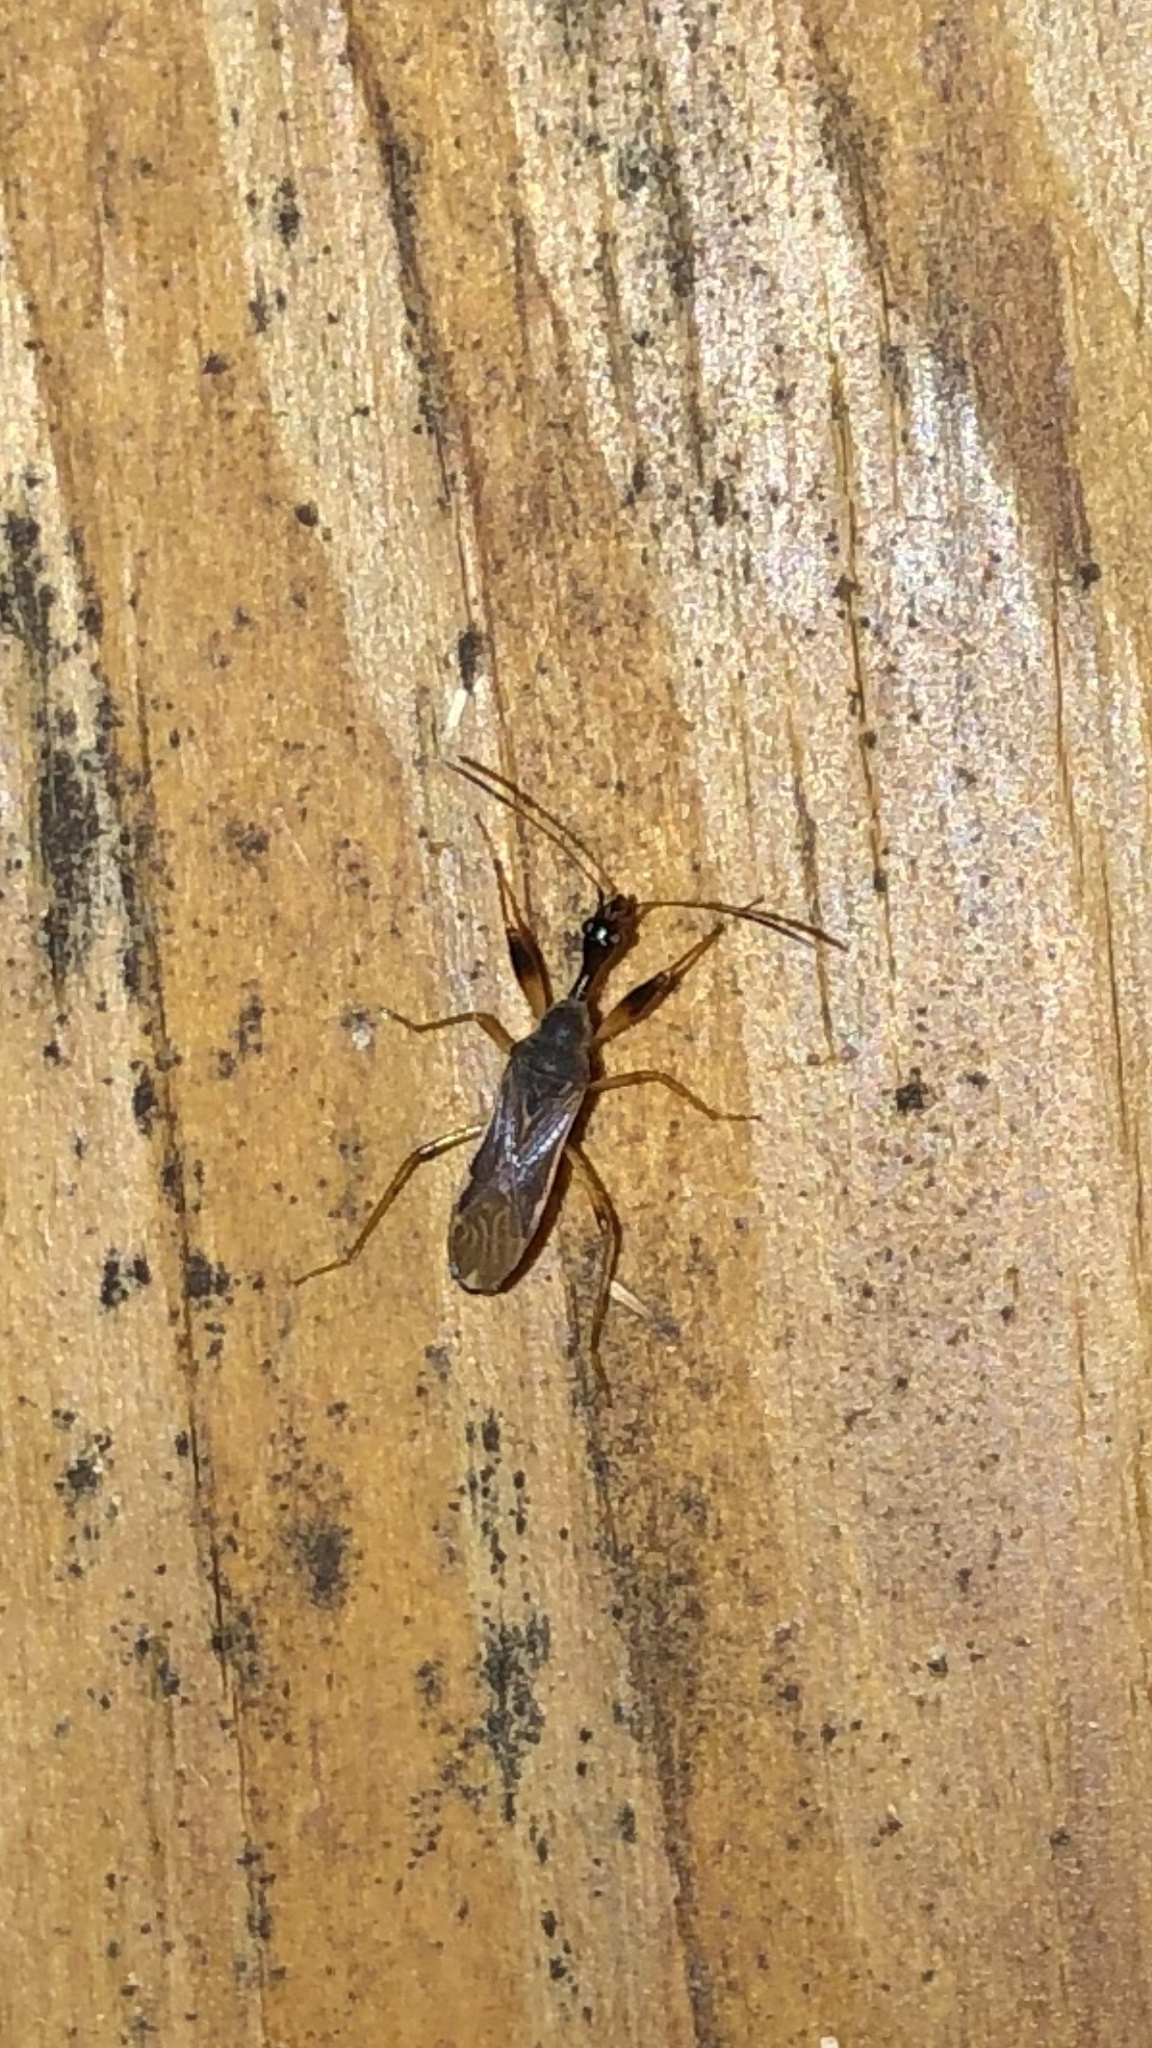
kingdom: Animalia
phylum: Arthropoda
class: Insecta
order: Hemiptera
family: Rhyparochromidae
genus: Myodocha
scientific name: Myodocha serripes
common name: Long-necked seed bug
